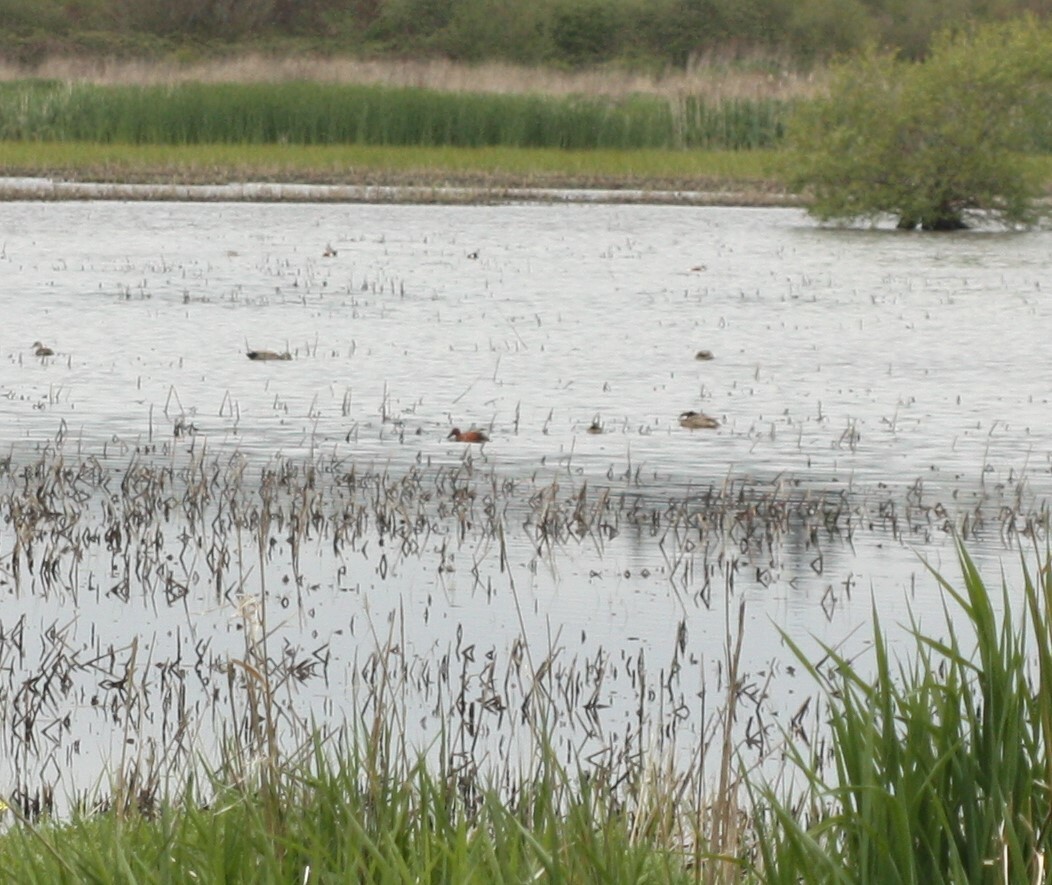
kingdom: Animalia
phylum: Chordata
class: Aves
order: Anseriformes
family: Anatidae
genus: Spatula
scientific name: Spatula clypeata
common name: Northern shoveler
